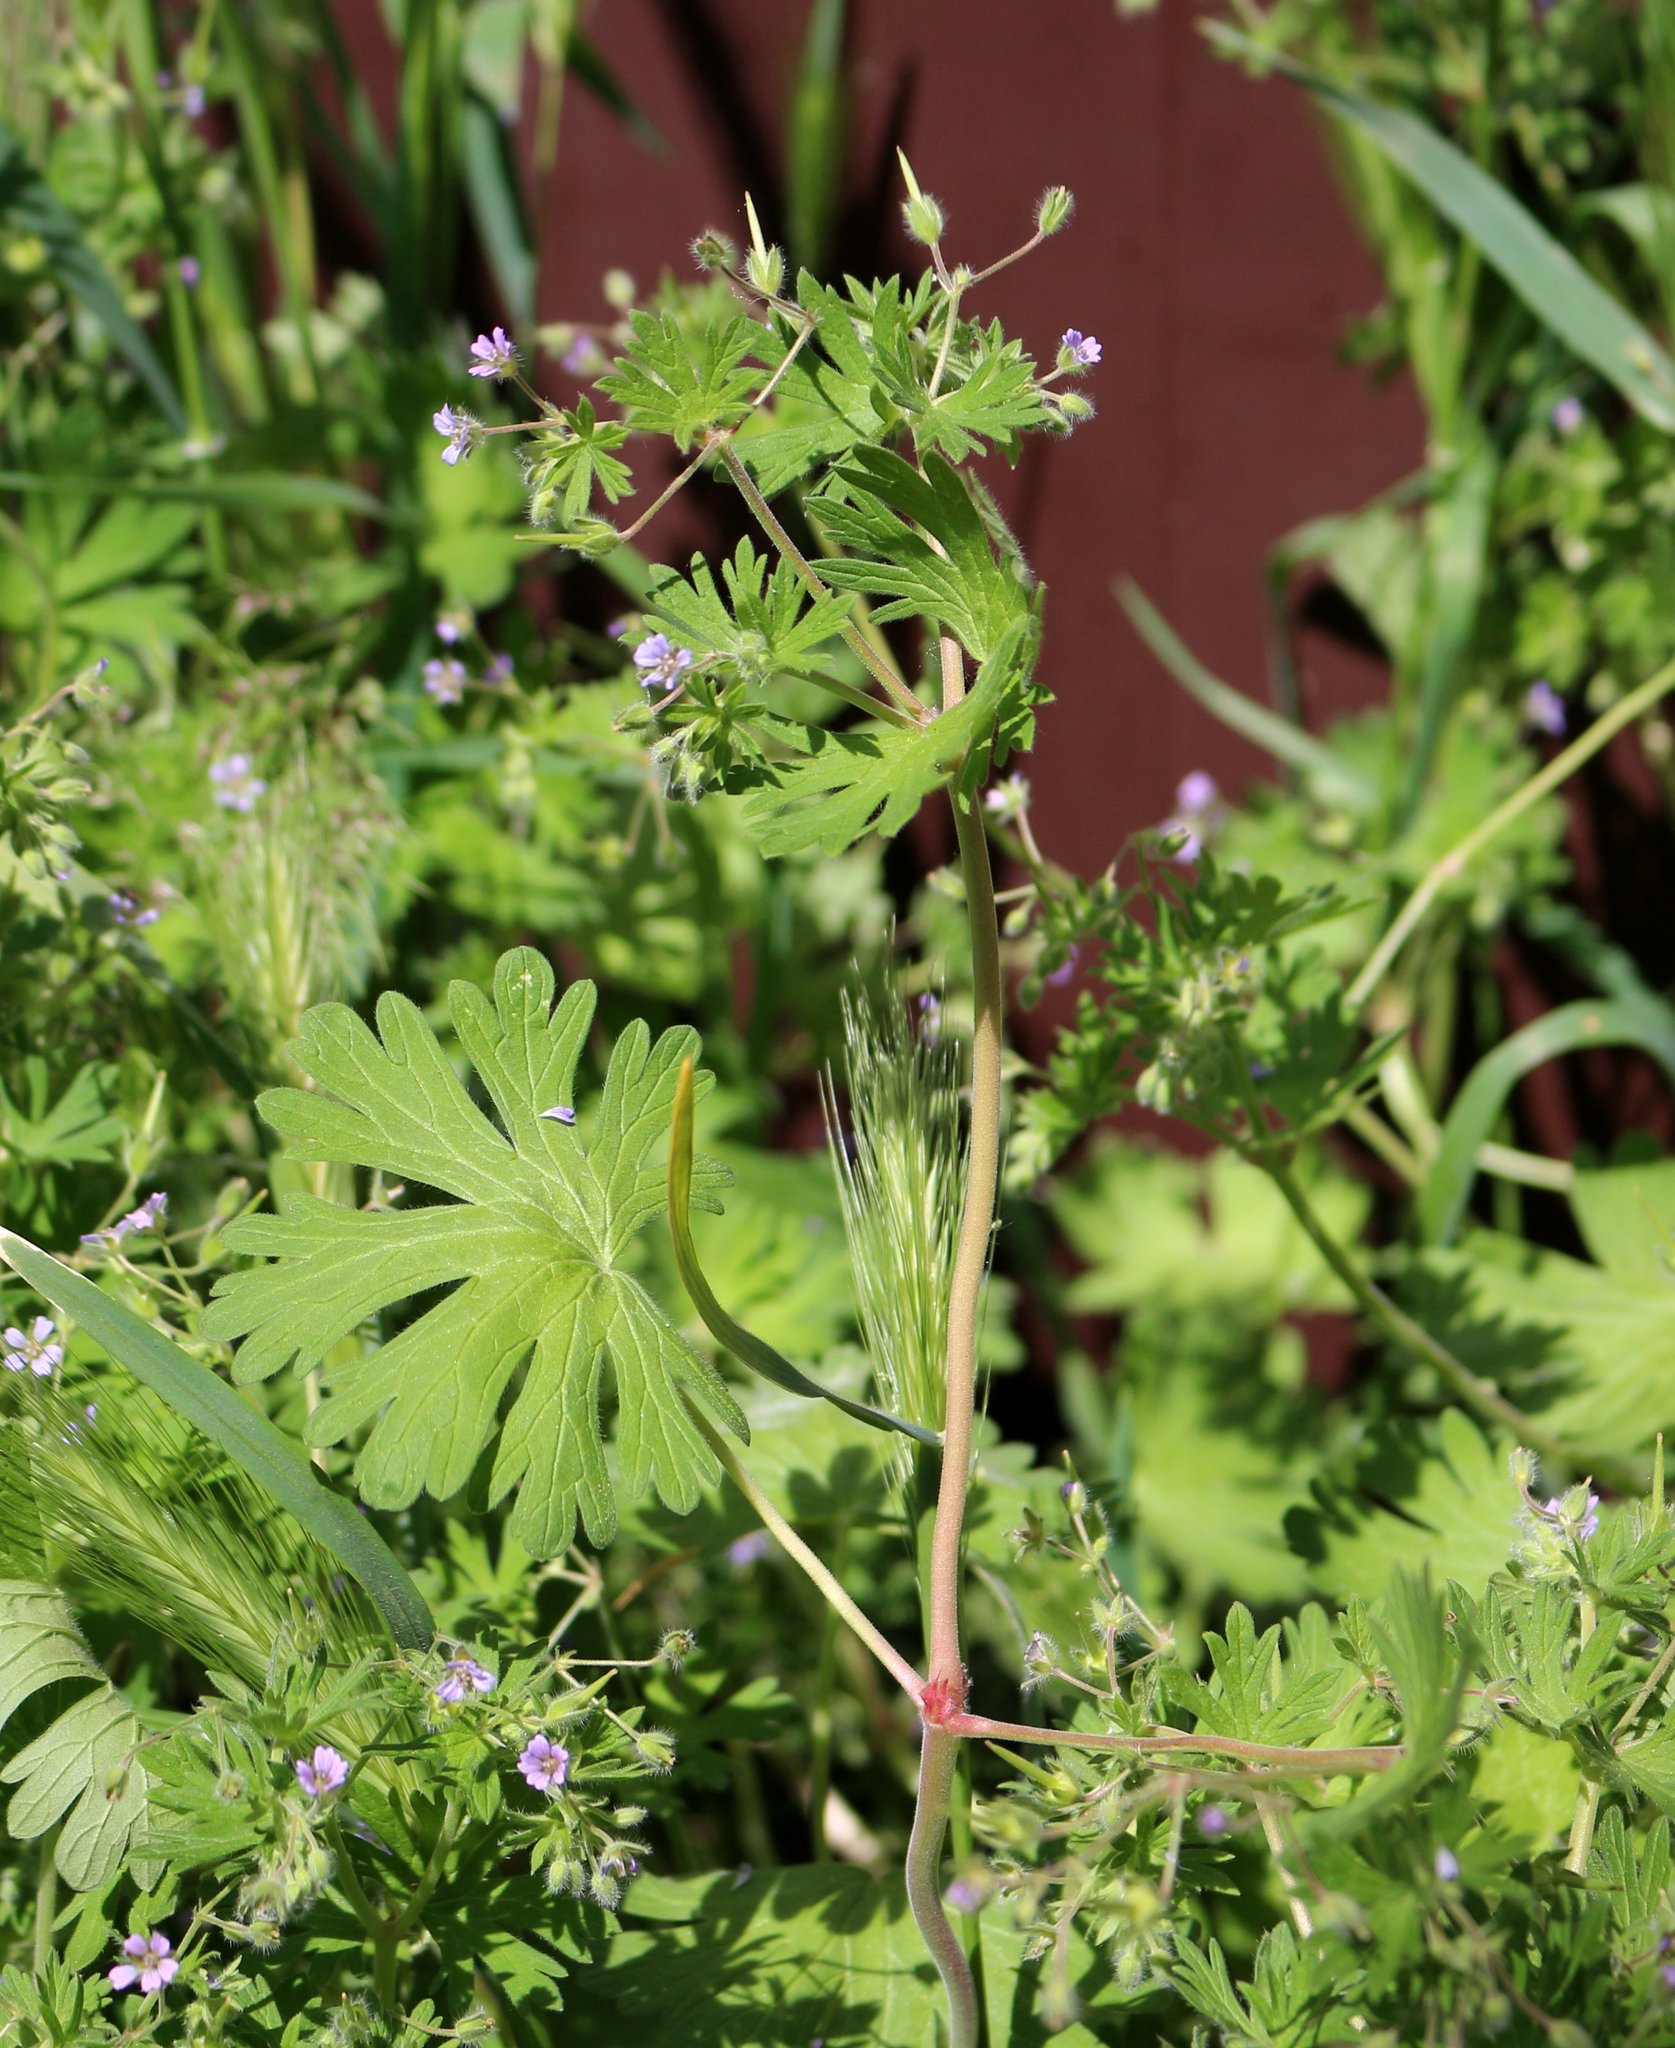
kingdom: Plantae
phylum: Tracheophyta
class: Magnoliopsida
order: Geraniales
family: Geraniaceae
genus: Geranium
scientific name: Geranium pusillum
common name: Small geranium
